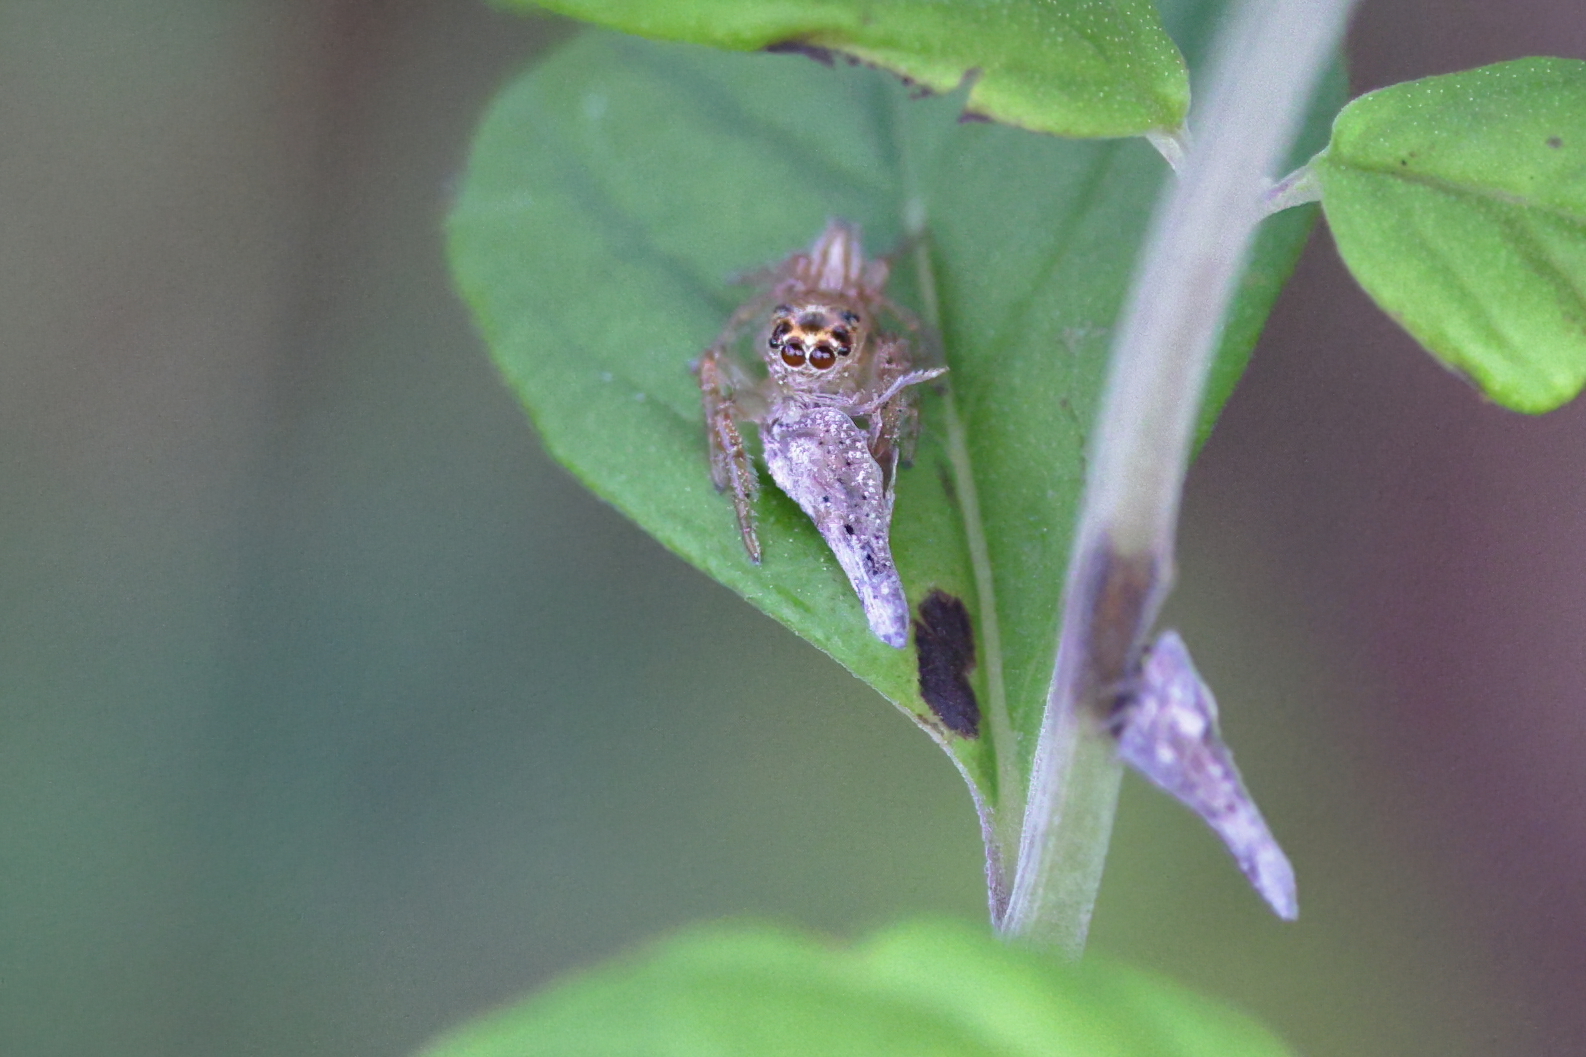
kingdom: Animalia
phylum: Arthropoda
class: Arachnida
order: Araneae
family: Salticidae
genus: Colonus
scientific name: Colonus
